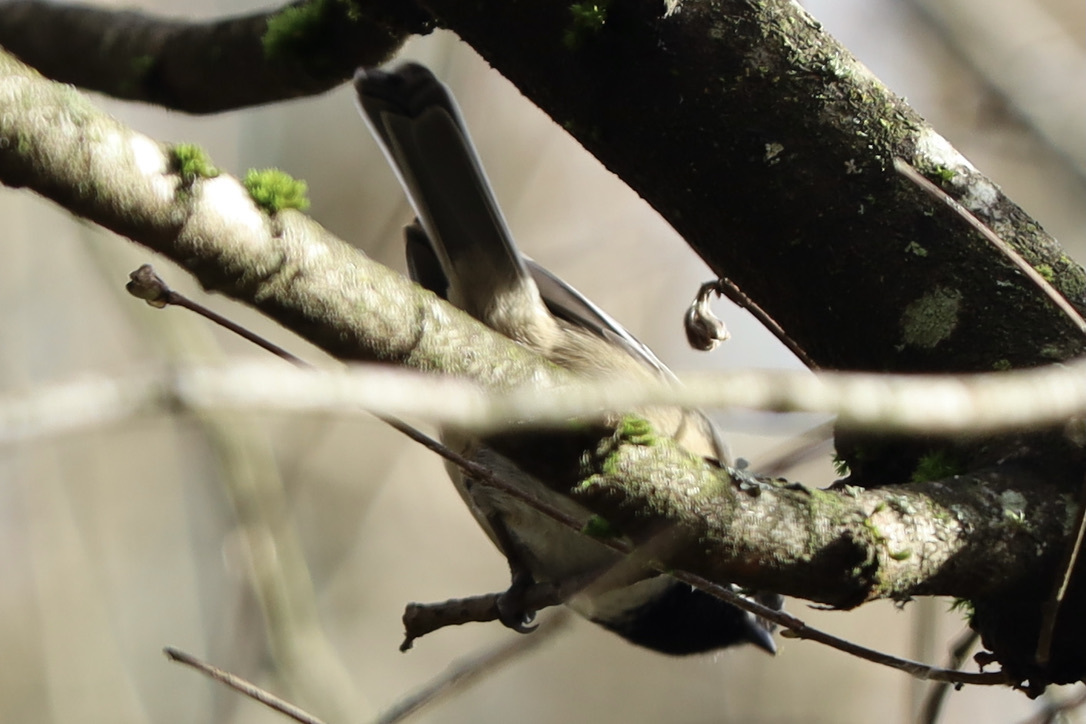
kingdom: Animalia
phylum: Chordata
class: Aves
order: Passeriformes
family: Paridae
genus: Poecile
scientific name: Poecile atricapillus
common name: Black-capped chickadee
